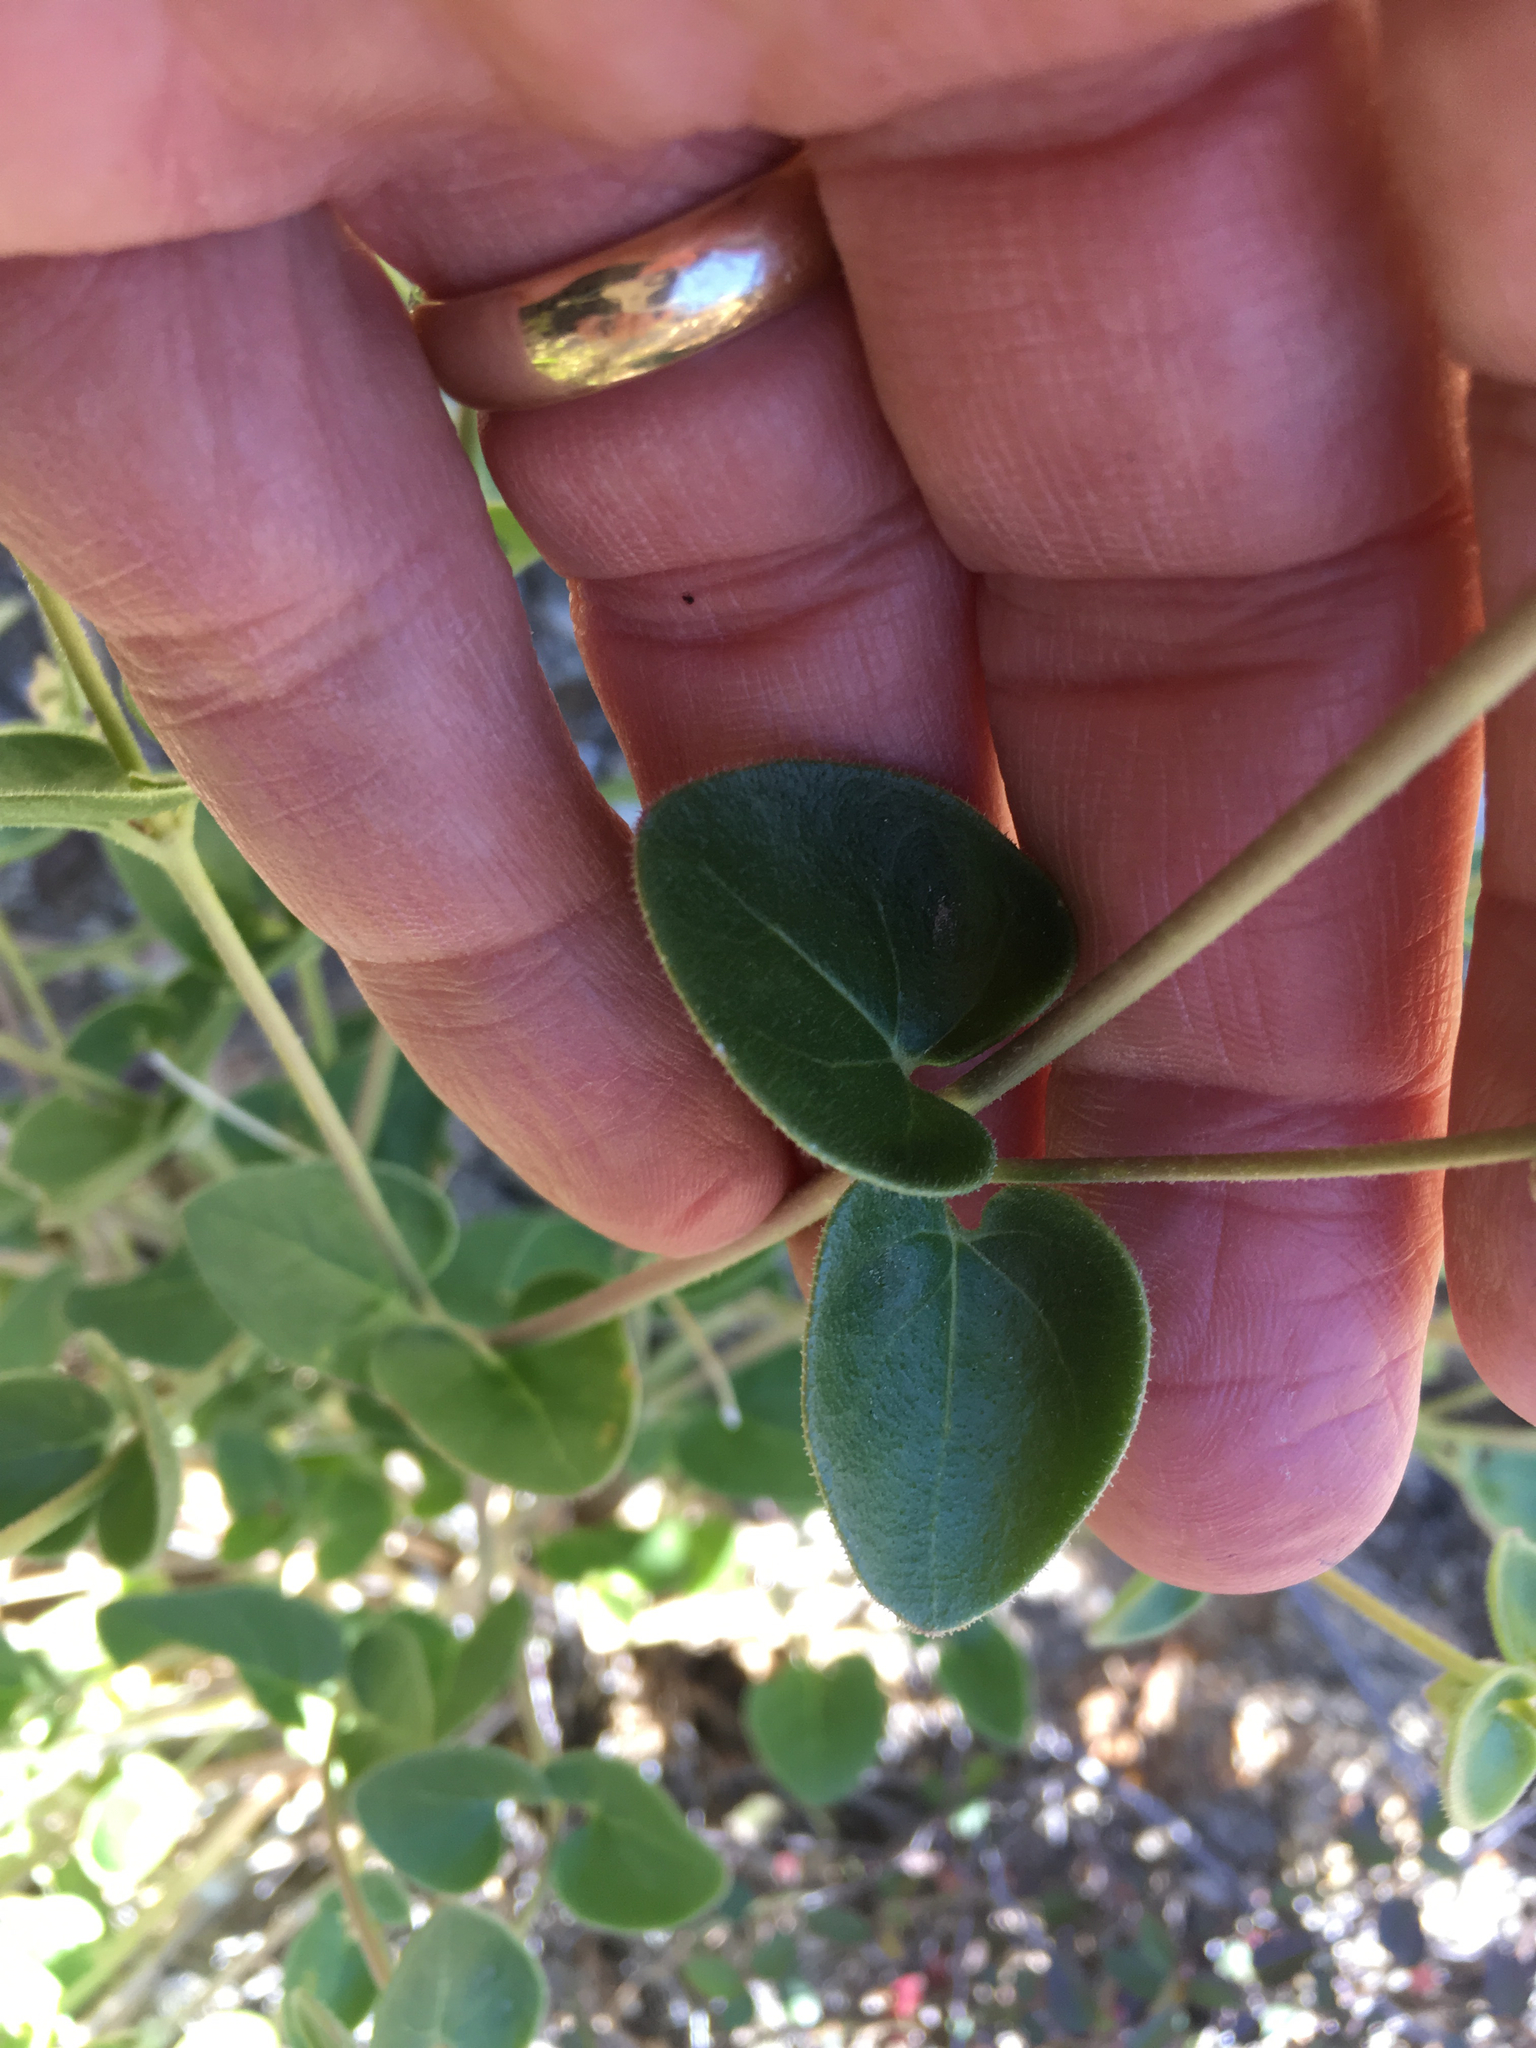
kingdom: Plantae
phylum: Tracheophyta
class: Magnoliopsida
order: Caryophyllales
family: Nyctaginaceae
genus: Mirabilis
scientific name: Mirabilis laevis
